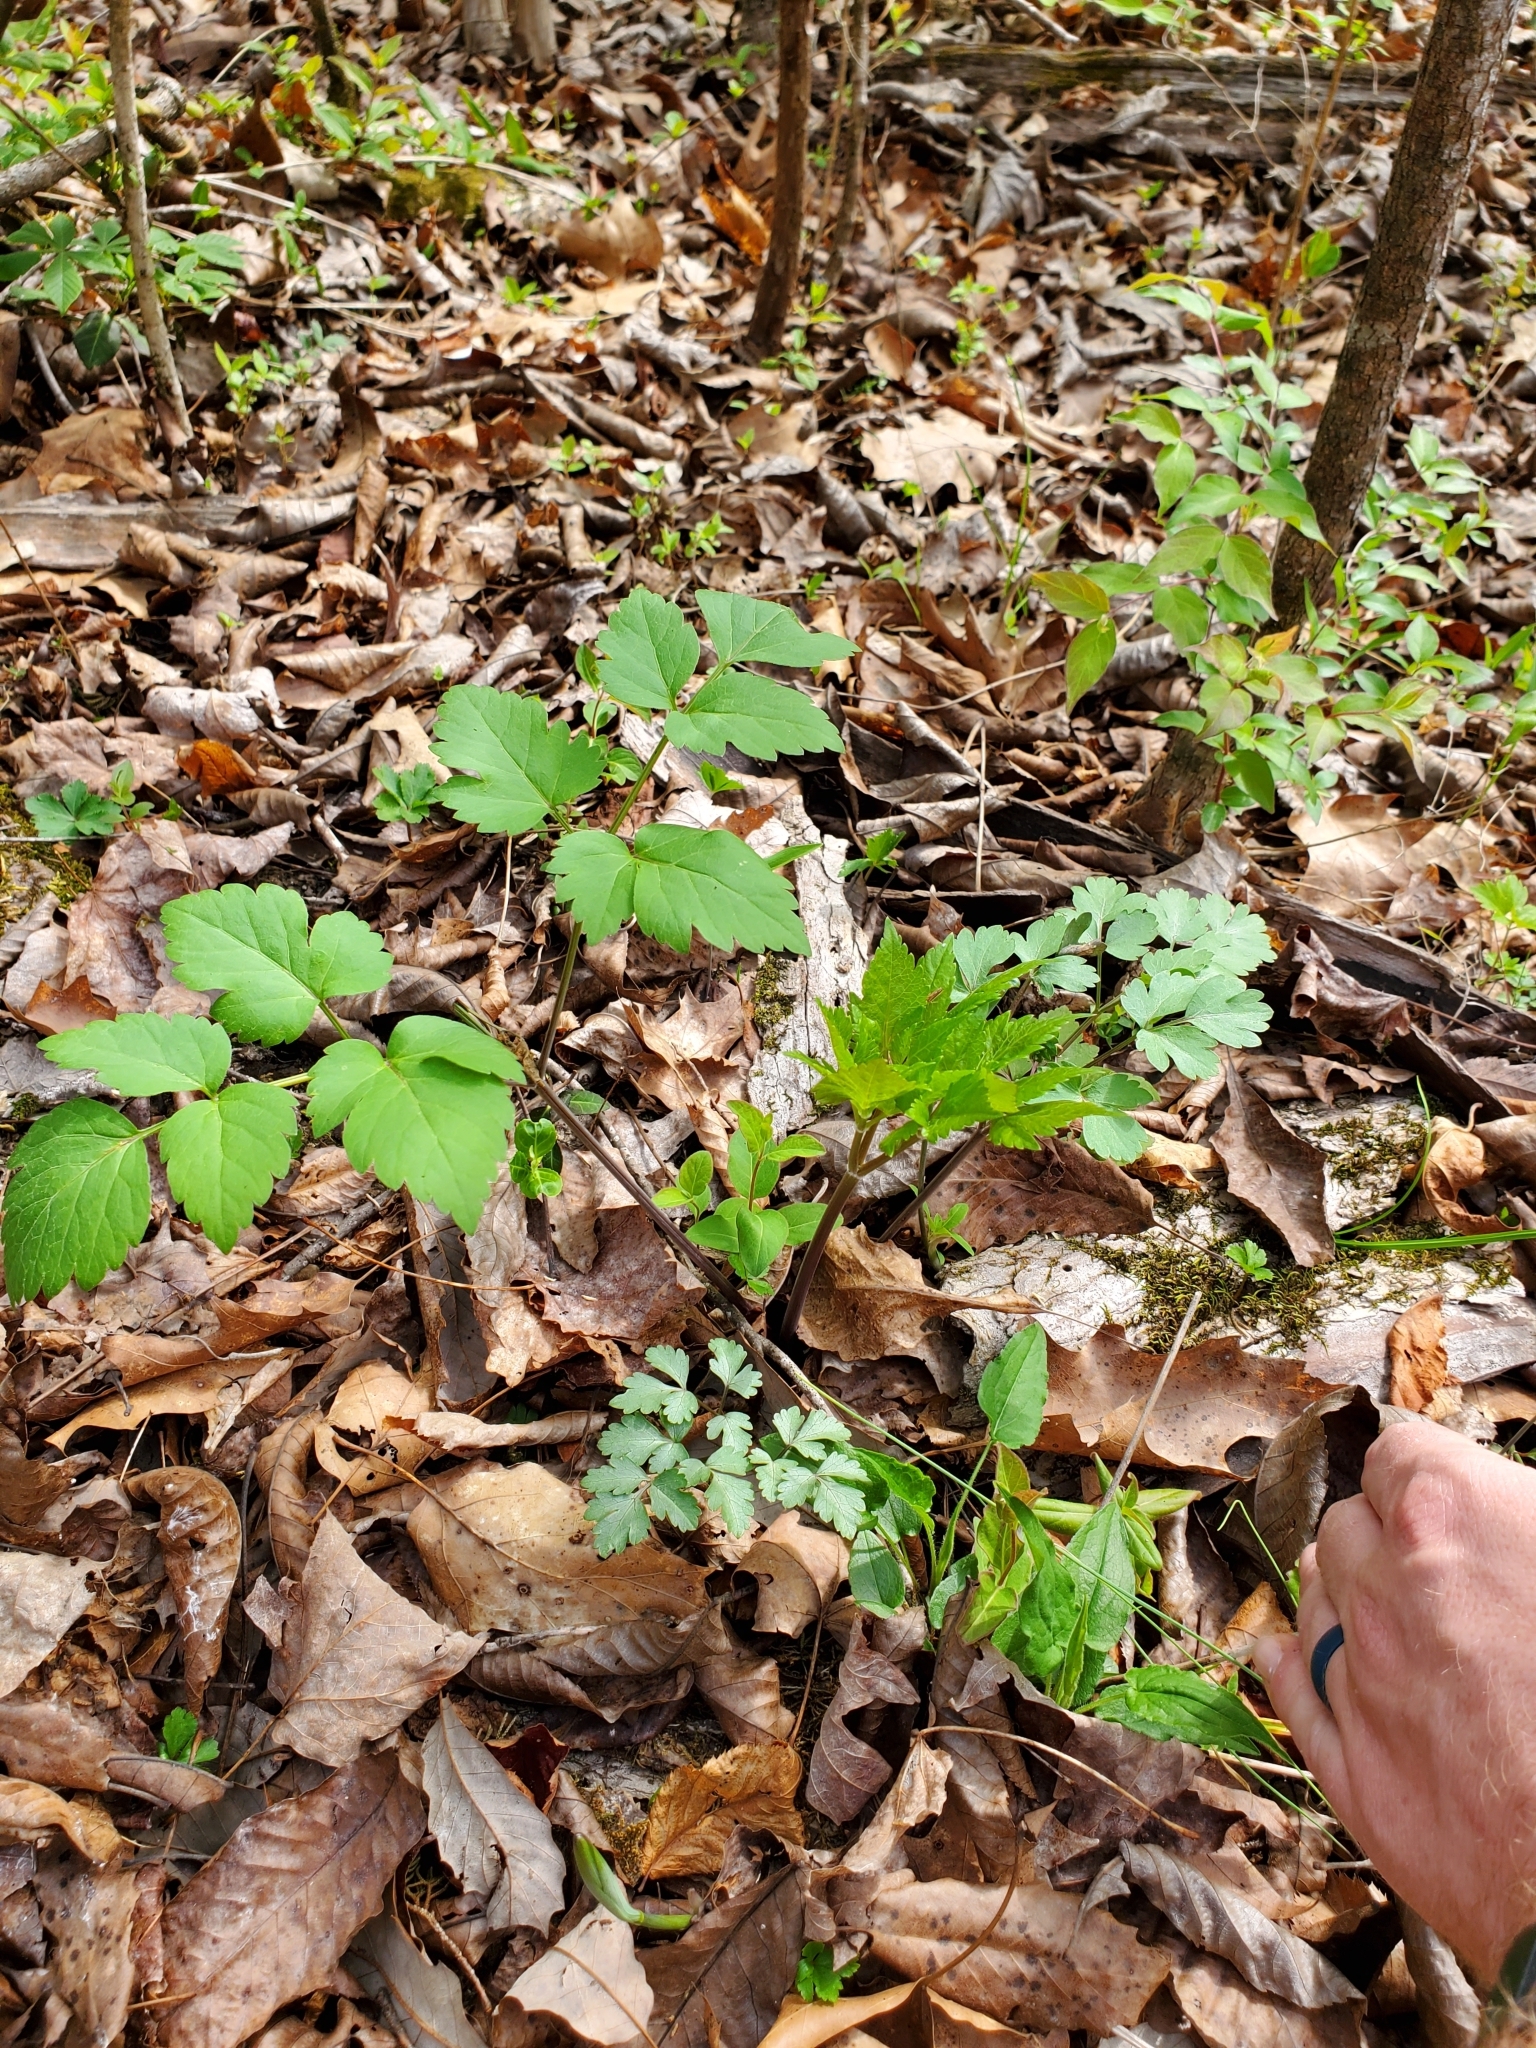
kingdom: Plantae
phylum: Tracheophyta
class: Magnoliopsida
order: Apiales
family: Apiaceae
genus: Zizia
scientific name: Zizia aurea
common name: Golden alexanders
